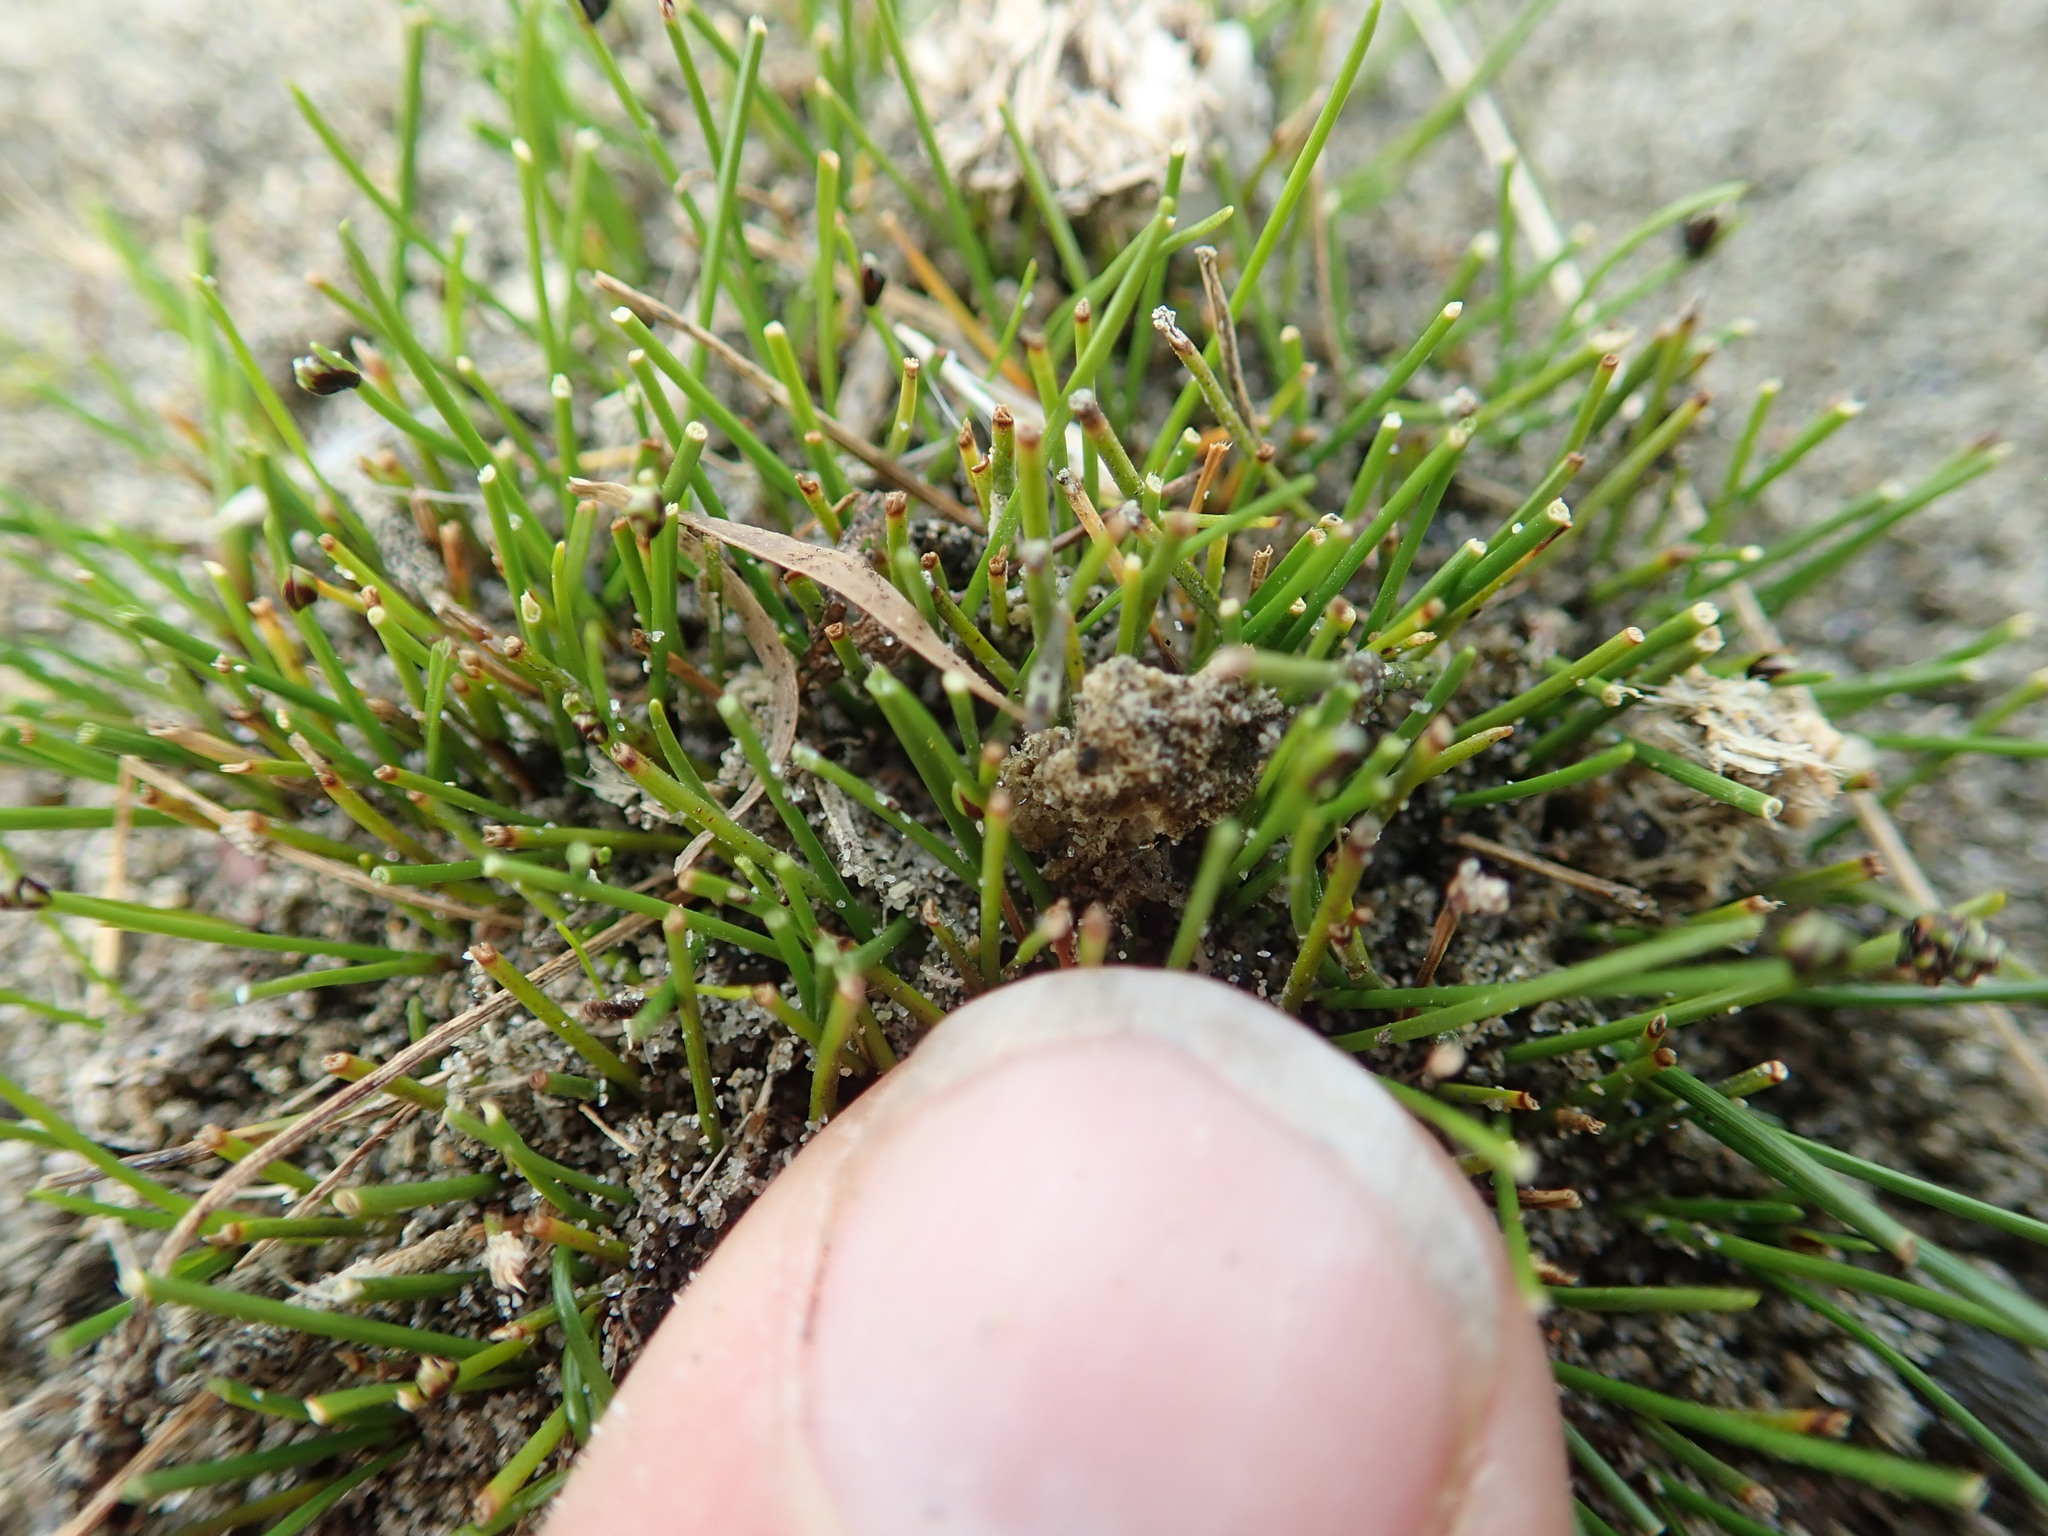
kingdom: Plantae
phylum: Tracheophyta
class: Liliopsida
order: Poales
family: Cyperaceae
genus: Isolepis
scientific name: Isolepis cernua
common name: Slender club-rush
